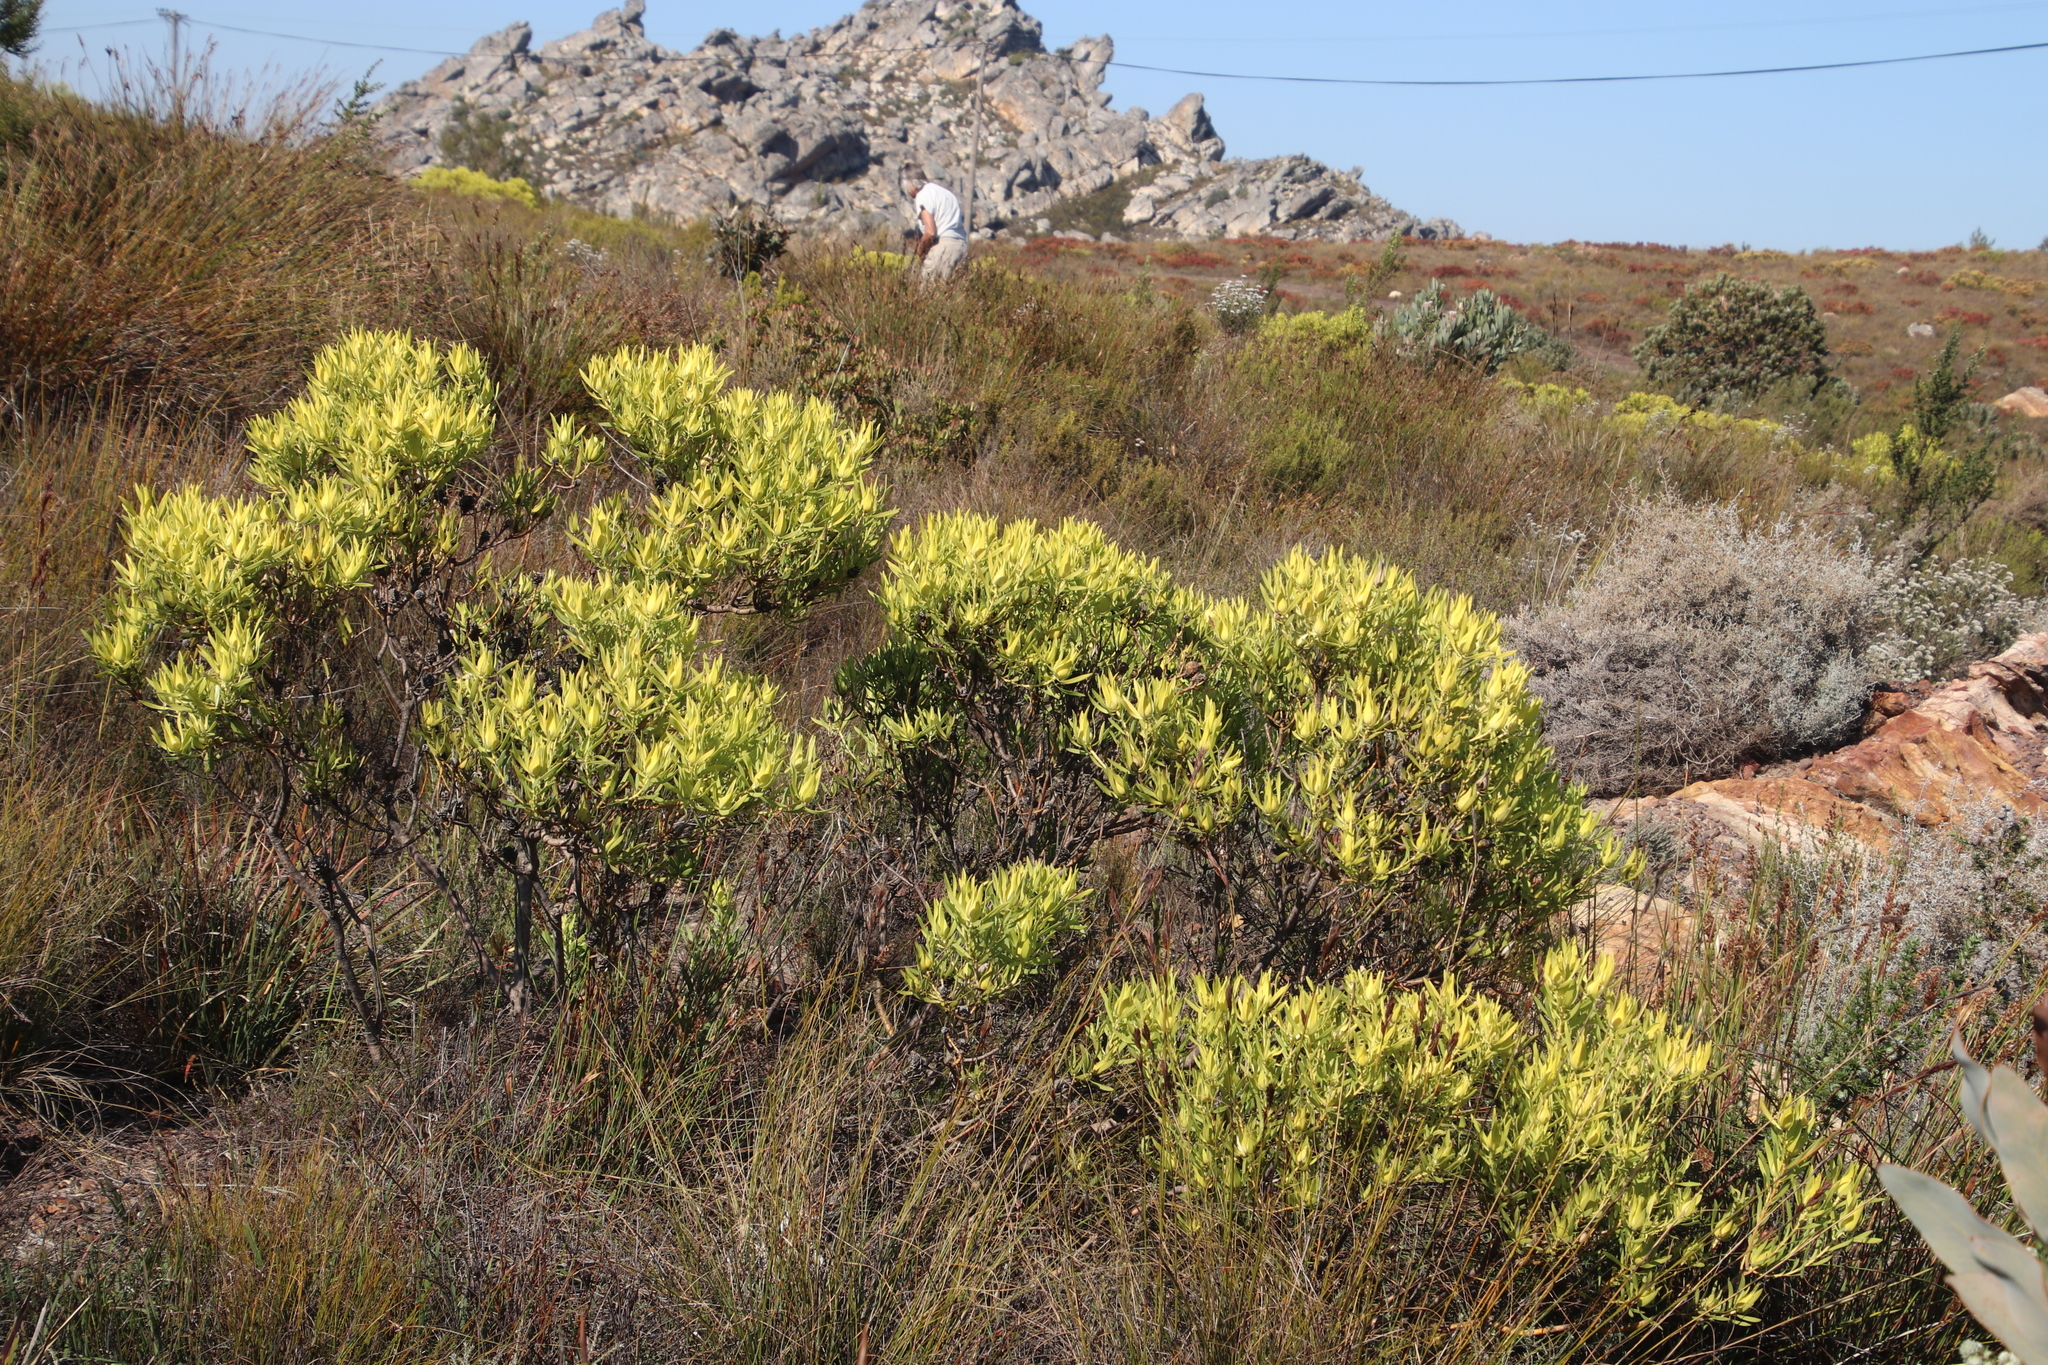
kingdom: Plantae
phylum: Tracheophyta
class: Magnoliopsida
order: Proteales
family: Proteaceae
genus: Leucadendron
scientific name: Leucadendron salignum
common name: Common sunshine conebush
